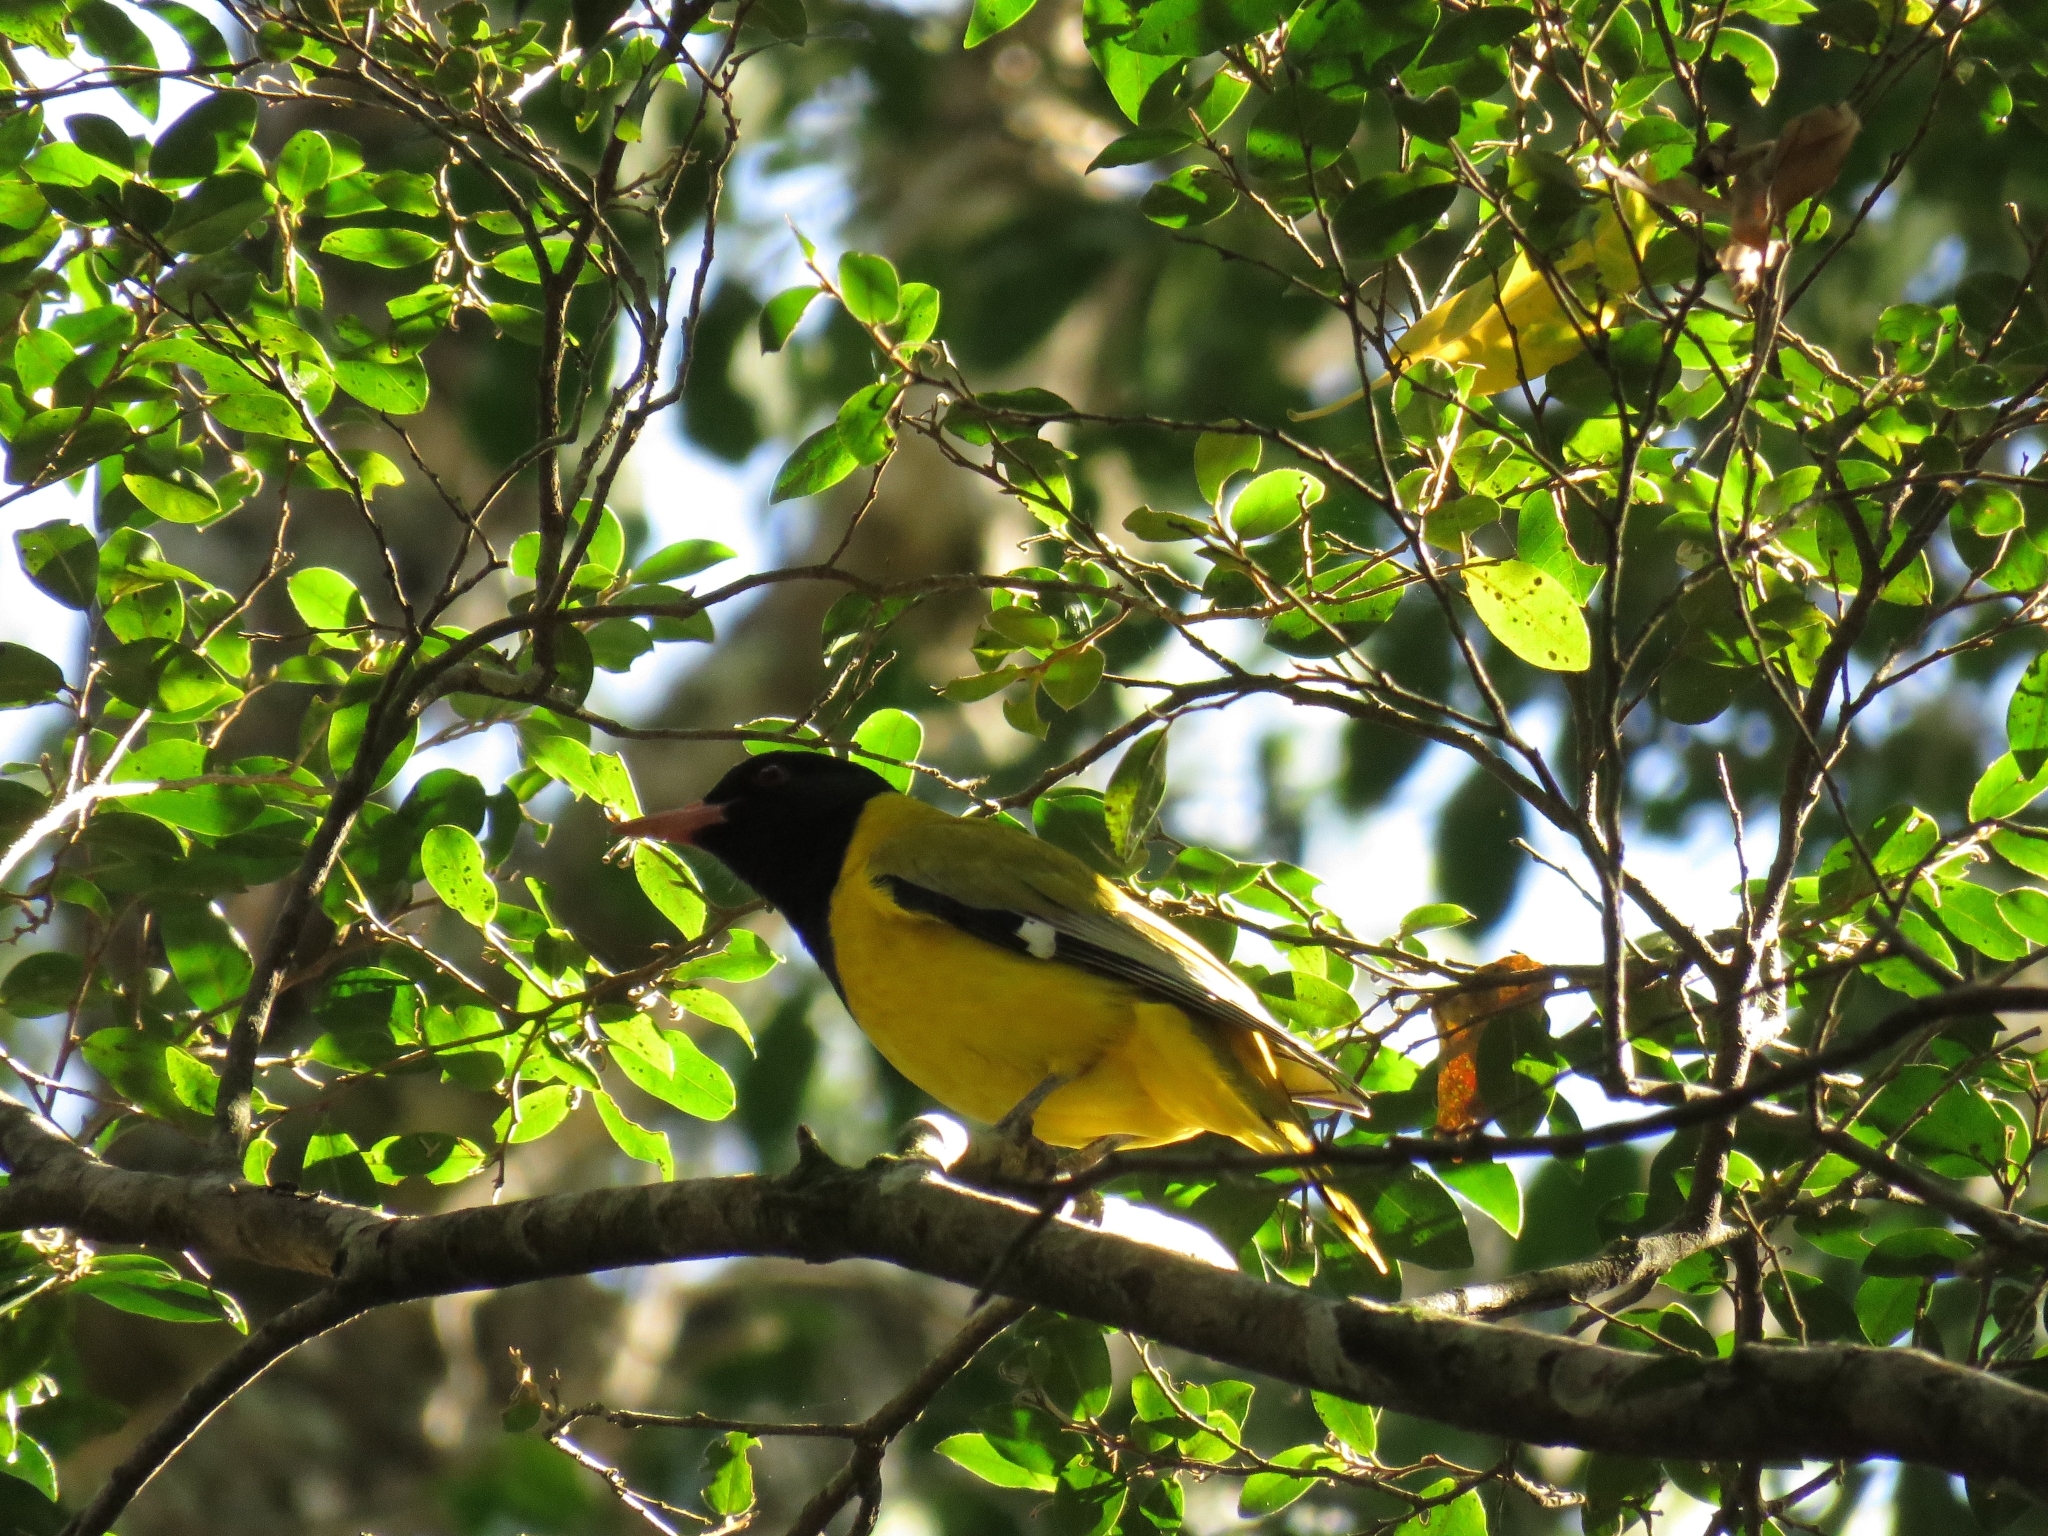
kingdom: Animalia
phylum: Chordata
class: Aves
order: Passeriformes
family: Oriolidae
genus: Oriolus
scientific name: Oriolus larvatus
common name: Black-headed oriole
